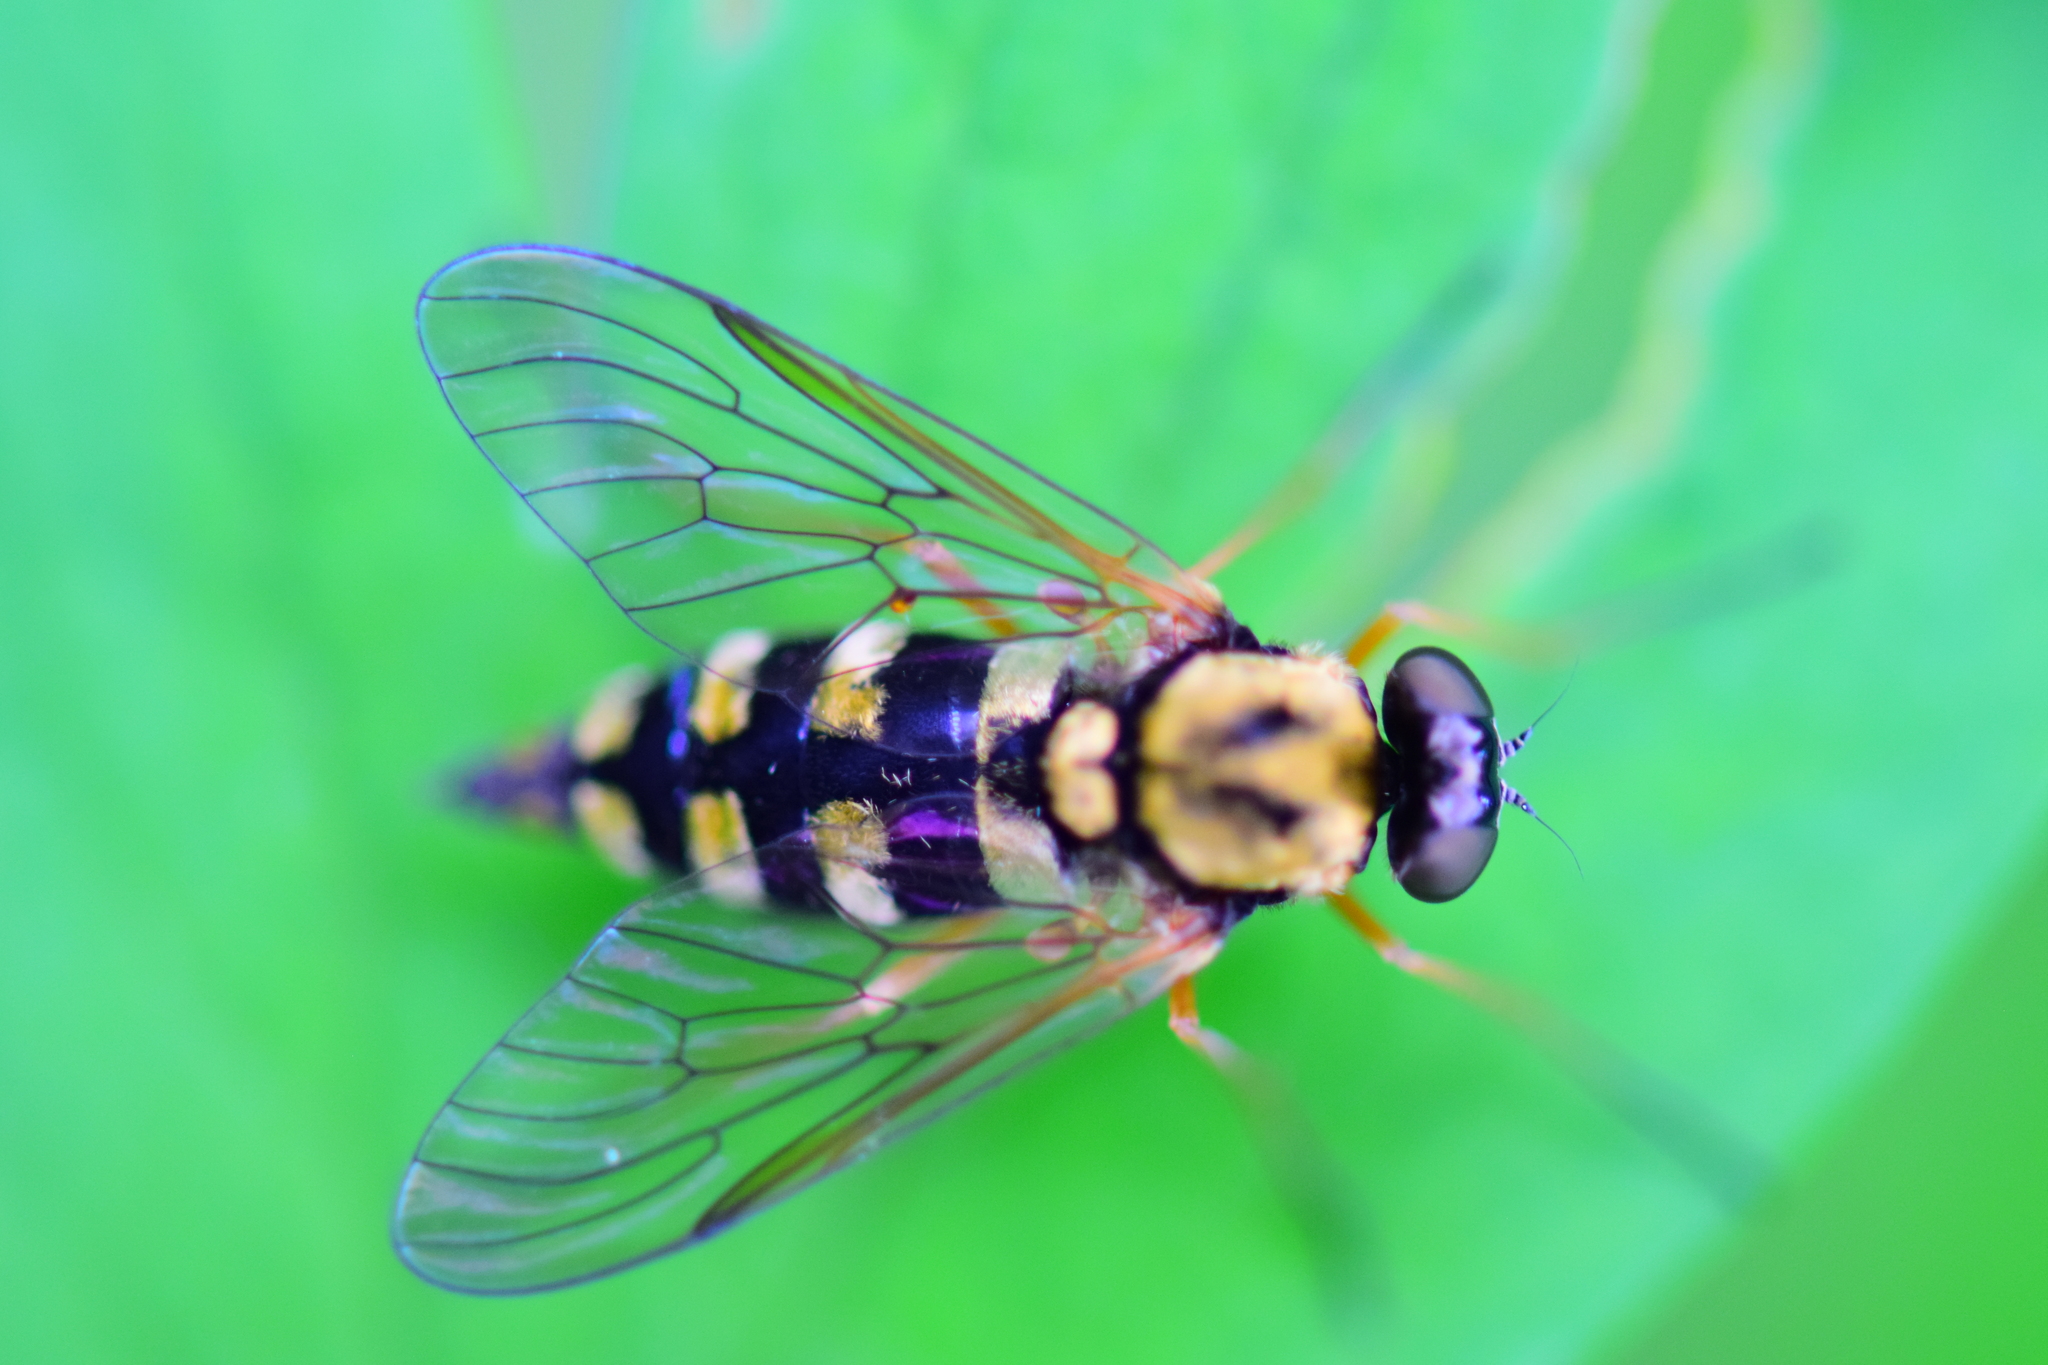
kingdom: Animalia
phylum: Arthropoda
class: Insecta
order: Diptera
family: Rhagionidae
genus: Chrysopilus
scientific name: Chrysopilus ornatus
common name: Ornate snipe fly
